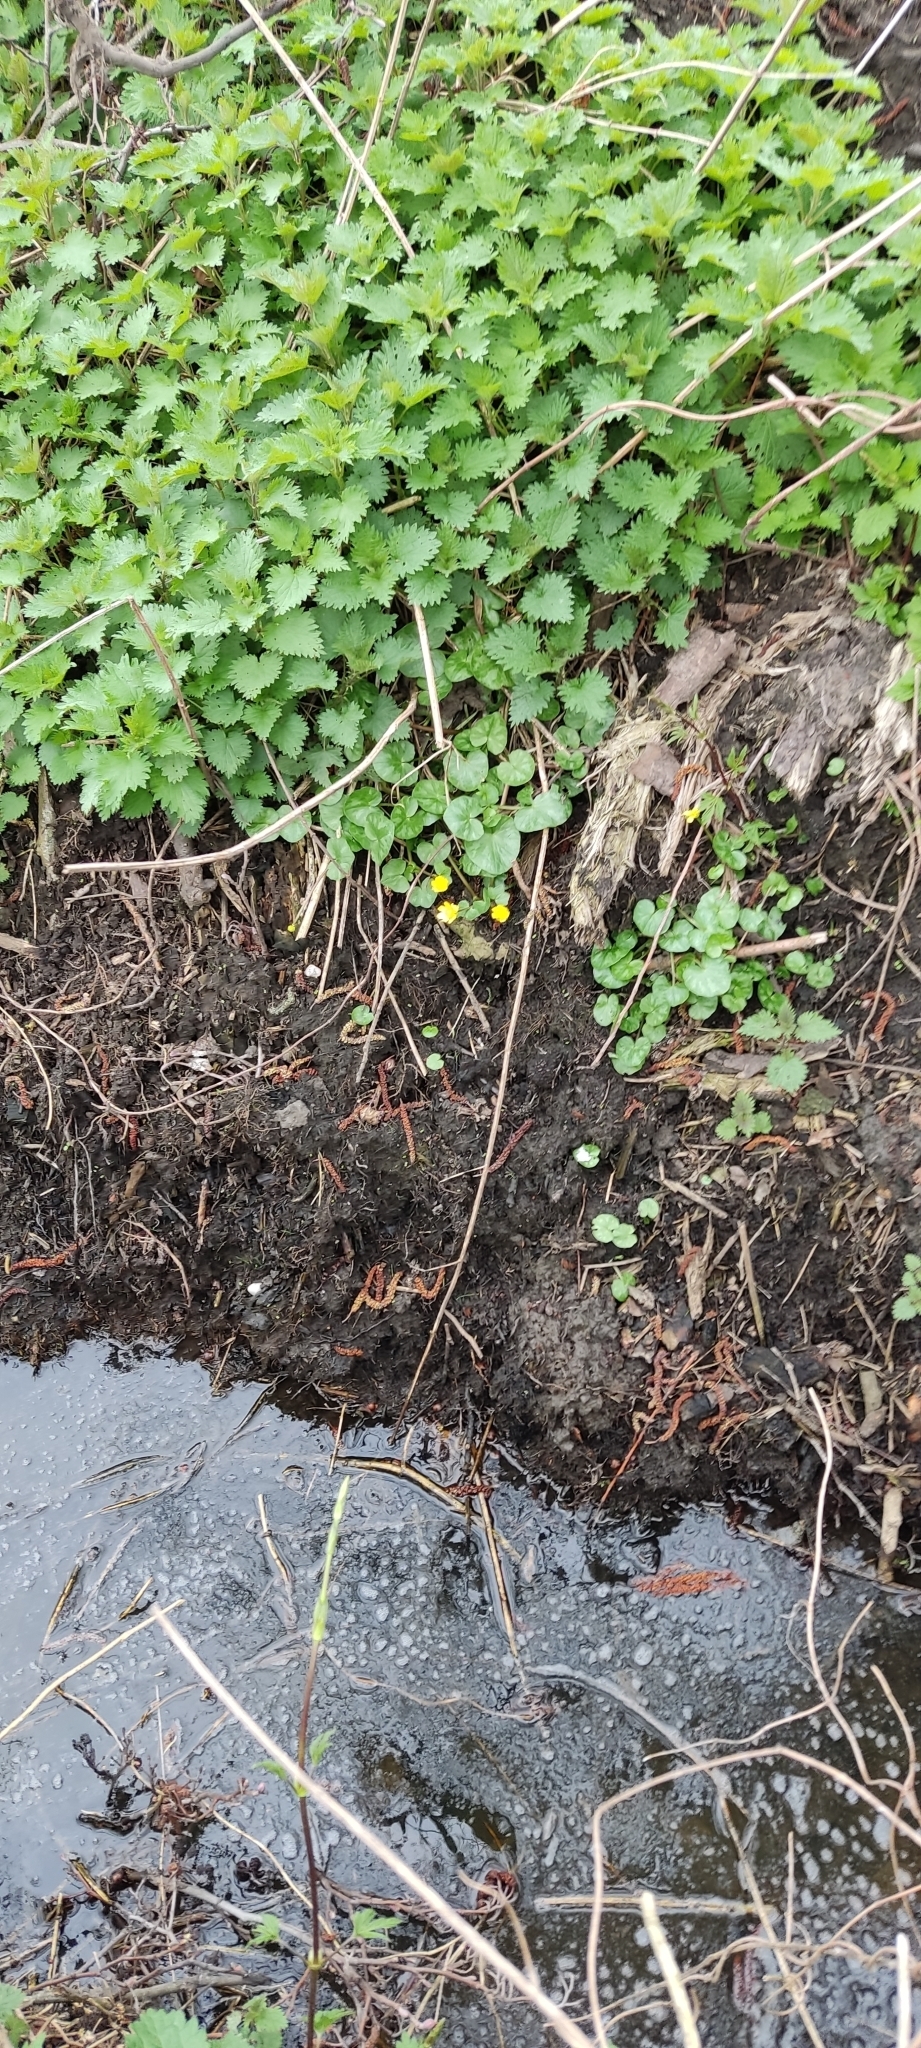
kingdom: Plantae
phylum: Tracheophyta
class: Magnoliopsida
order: Ranunculales
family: Ranunculaceae
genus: Ficaria
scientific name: Ficaria verna
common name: Lesser celandine
